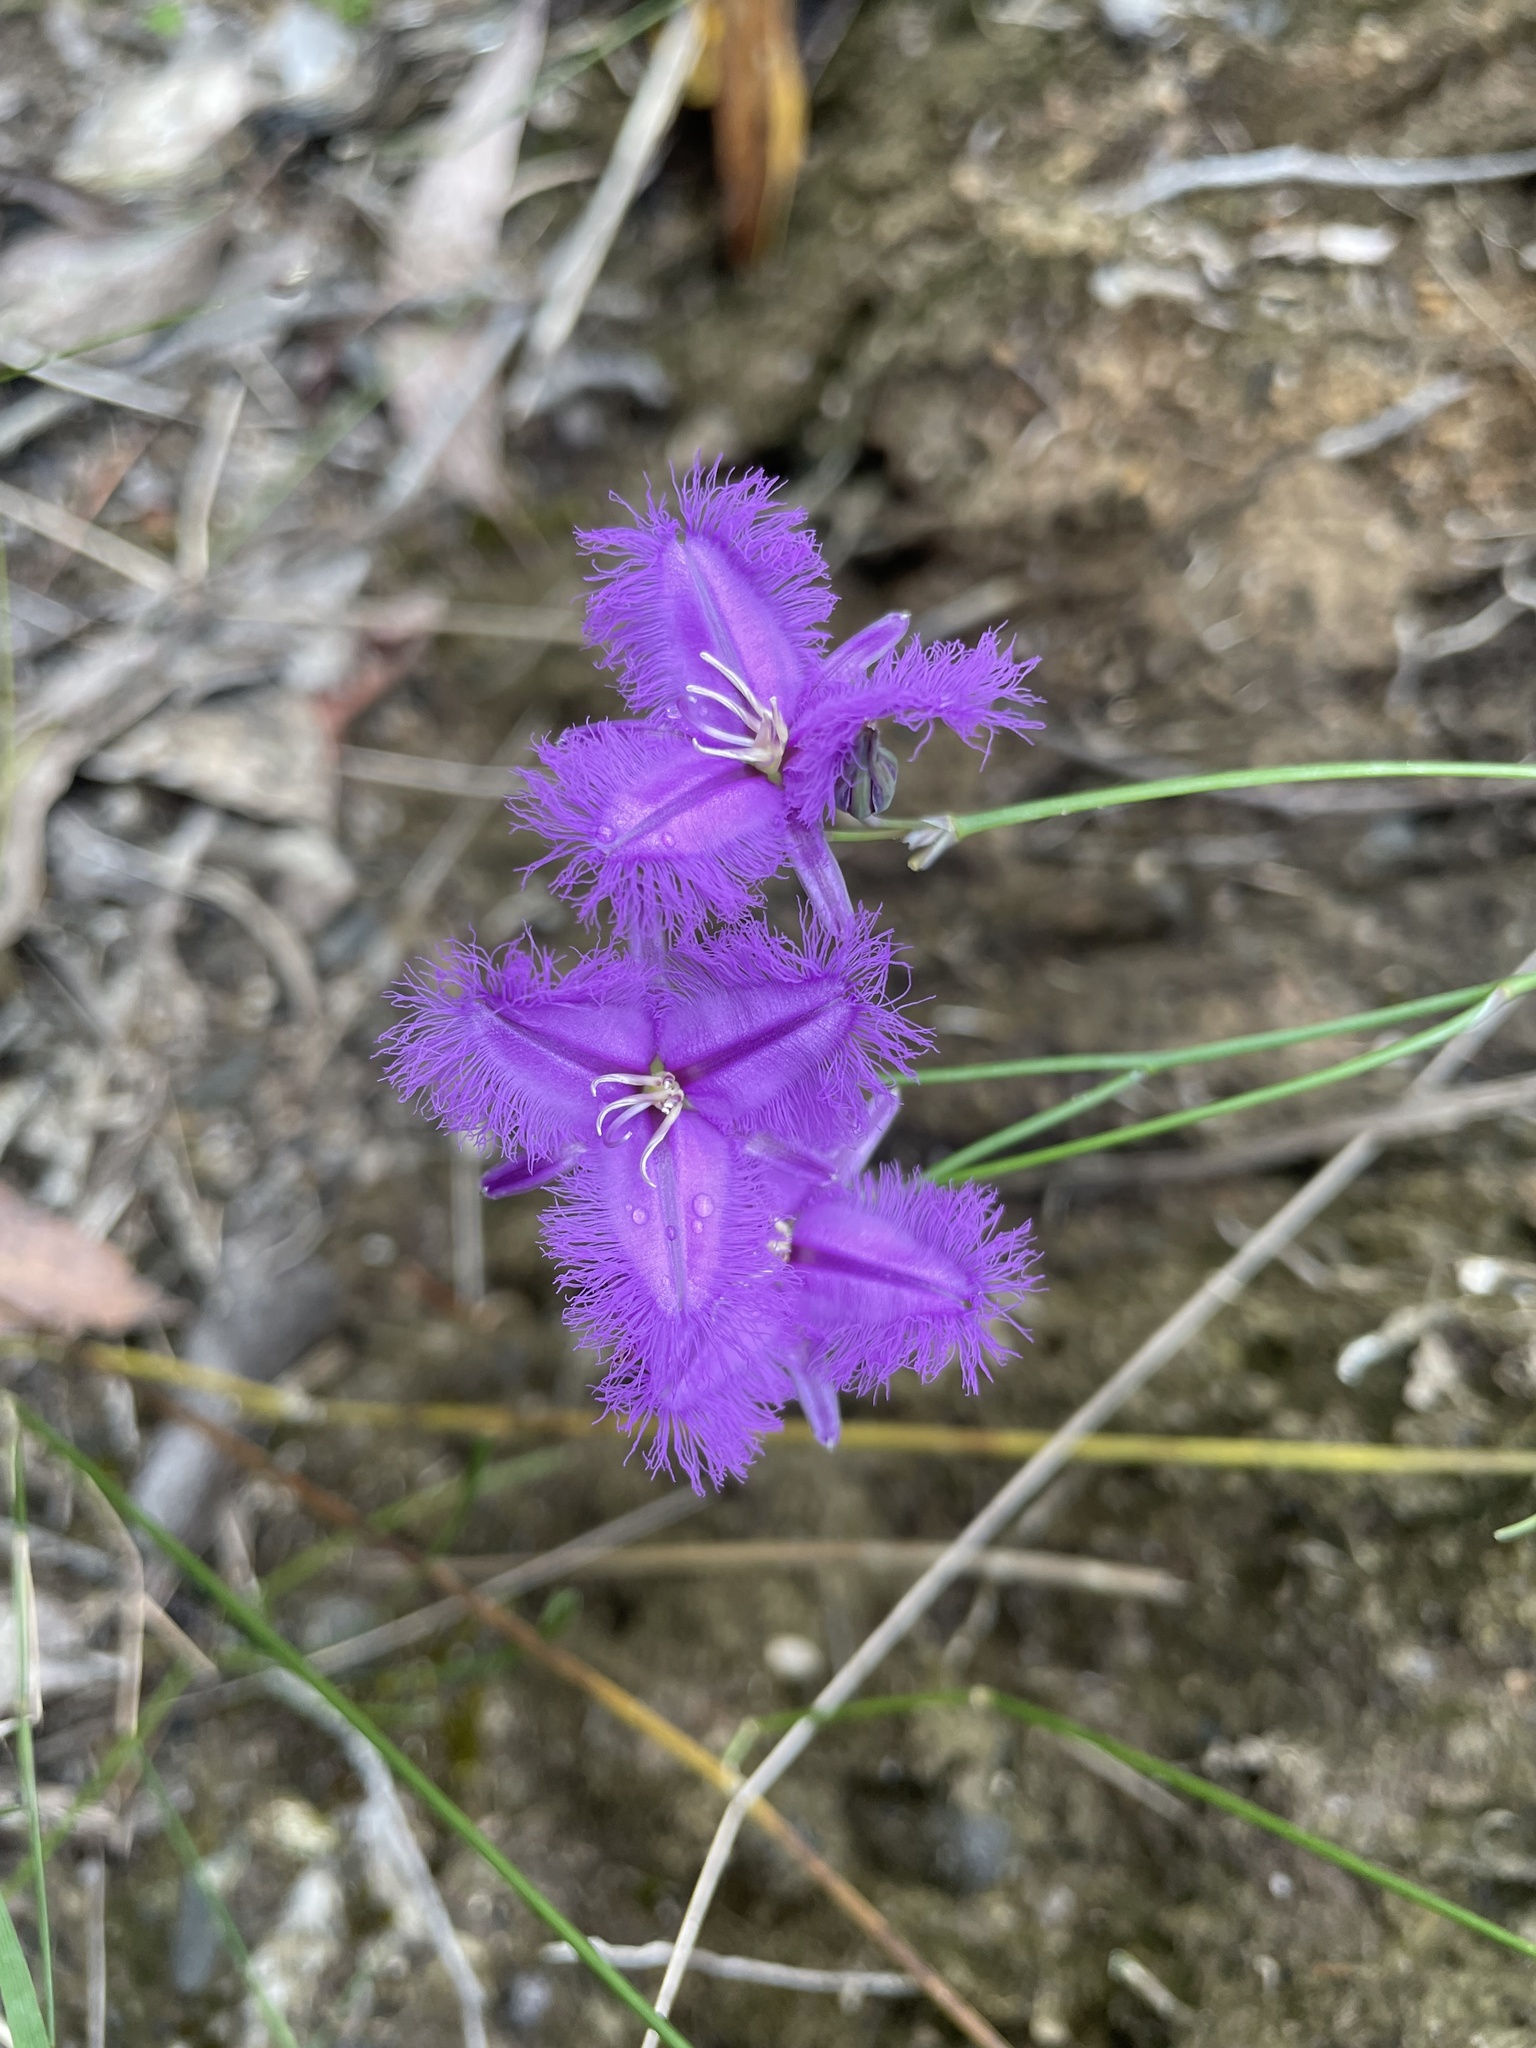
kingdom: Plantae
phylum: Tracheophyta
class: Liliopsida
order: Asparagales
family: Asparagaceae
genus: Thysanotus
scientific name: Thysanotus tuberosus
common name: Common fringed-lily
